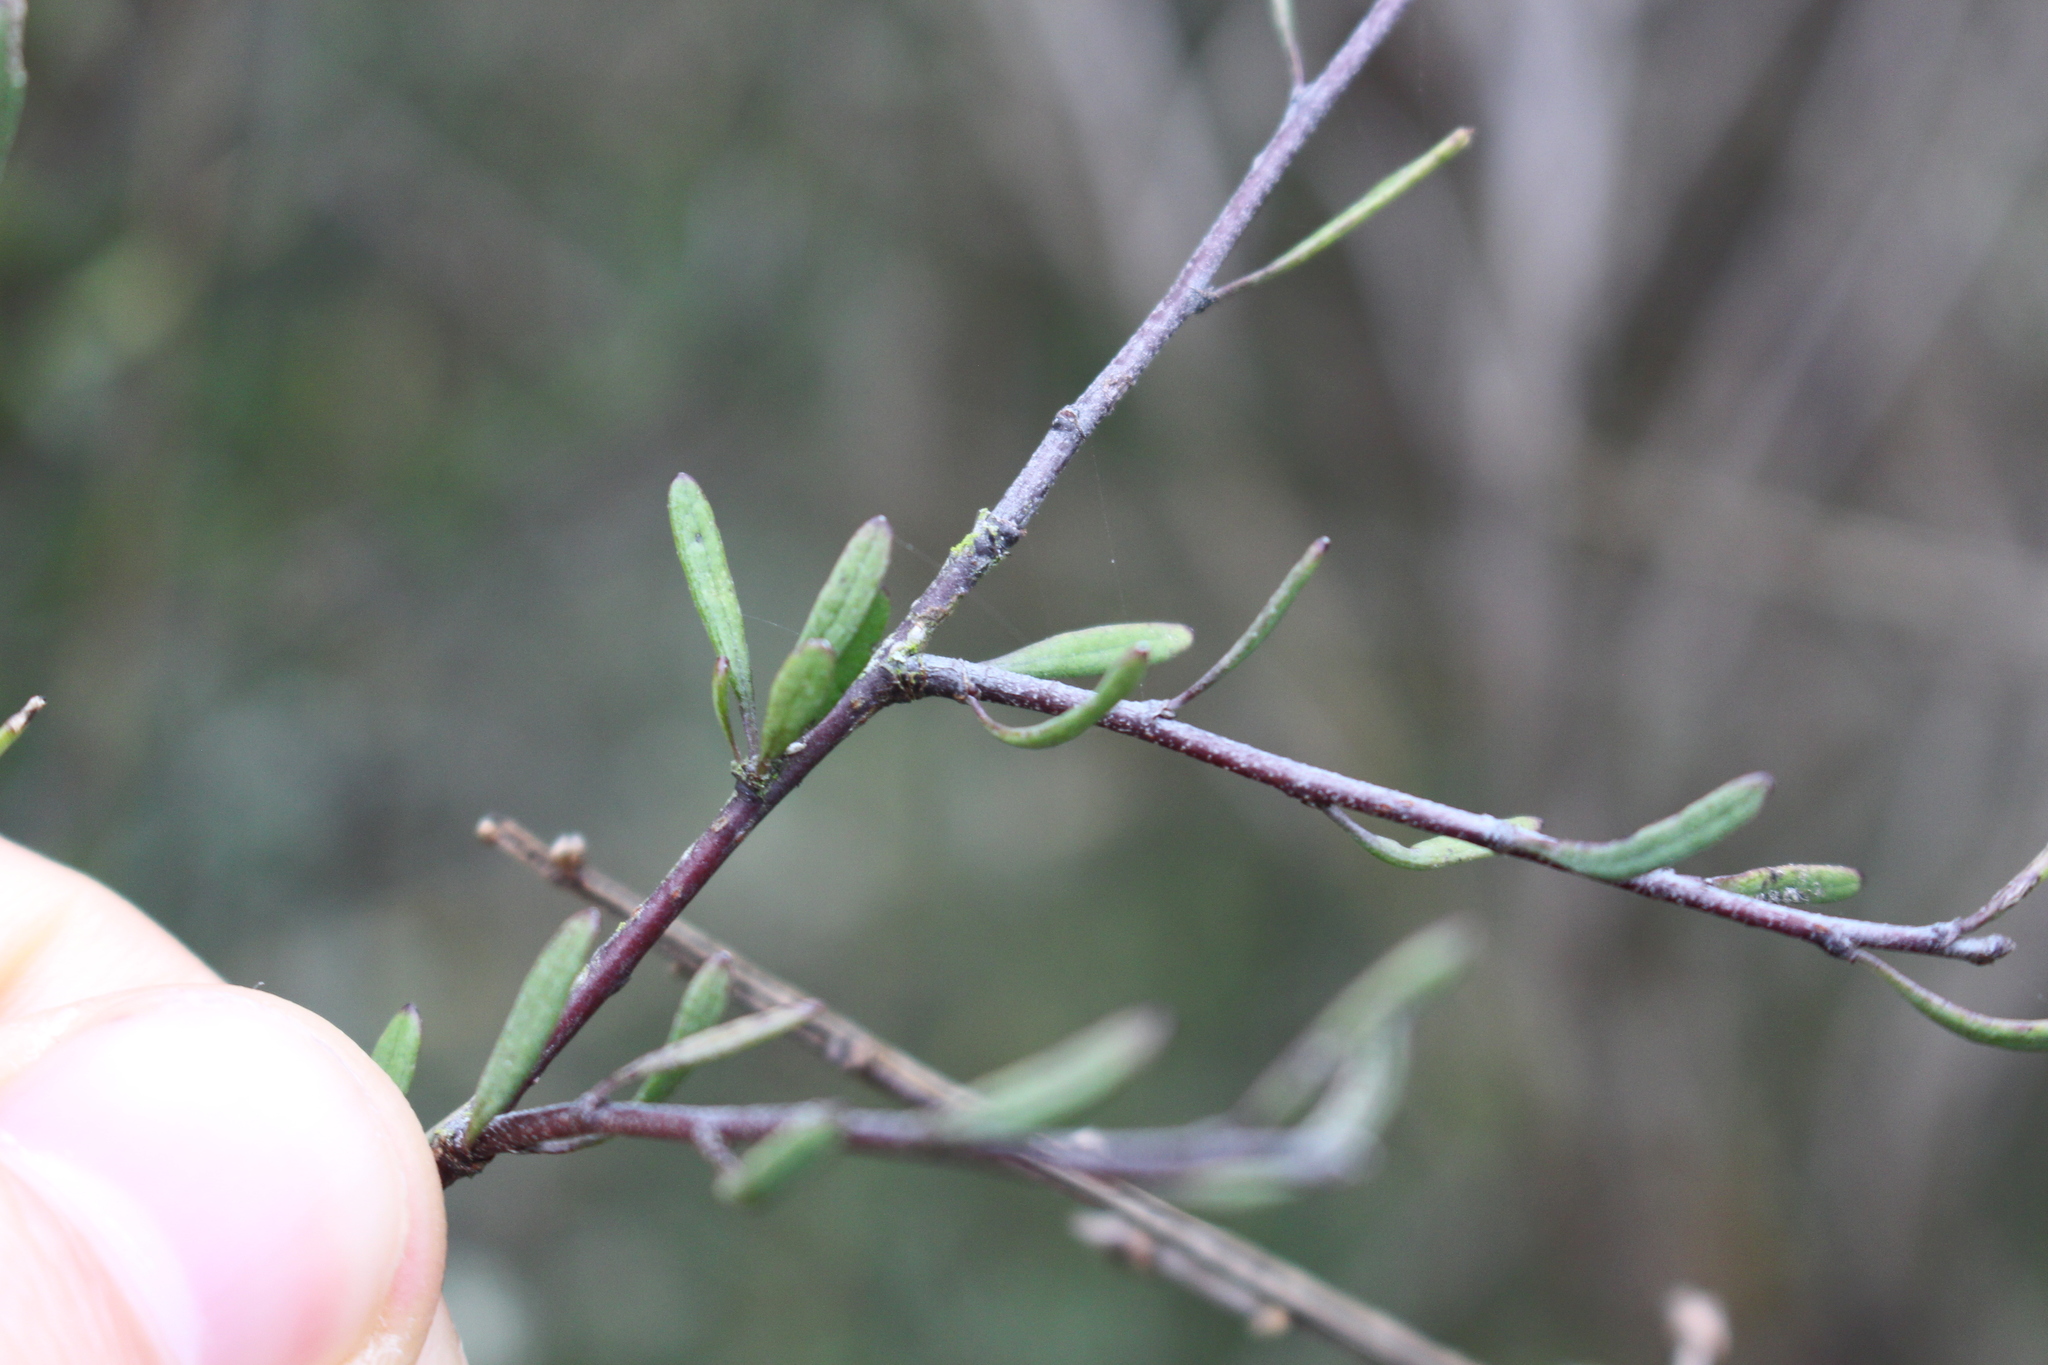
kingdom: Plantae
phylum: Tracheophyta
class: Magnoliopsida
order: Malvales
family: Malvaceae
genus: Plagianthus
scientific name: Plagianthus divaricatus
